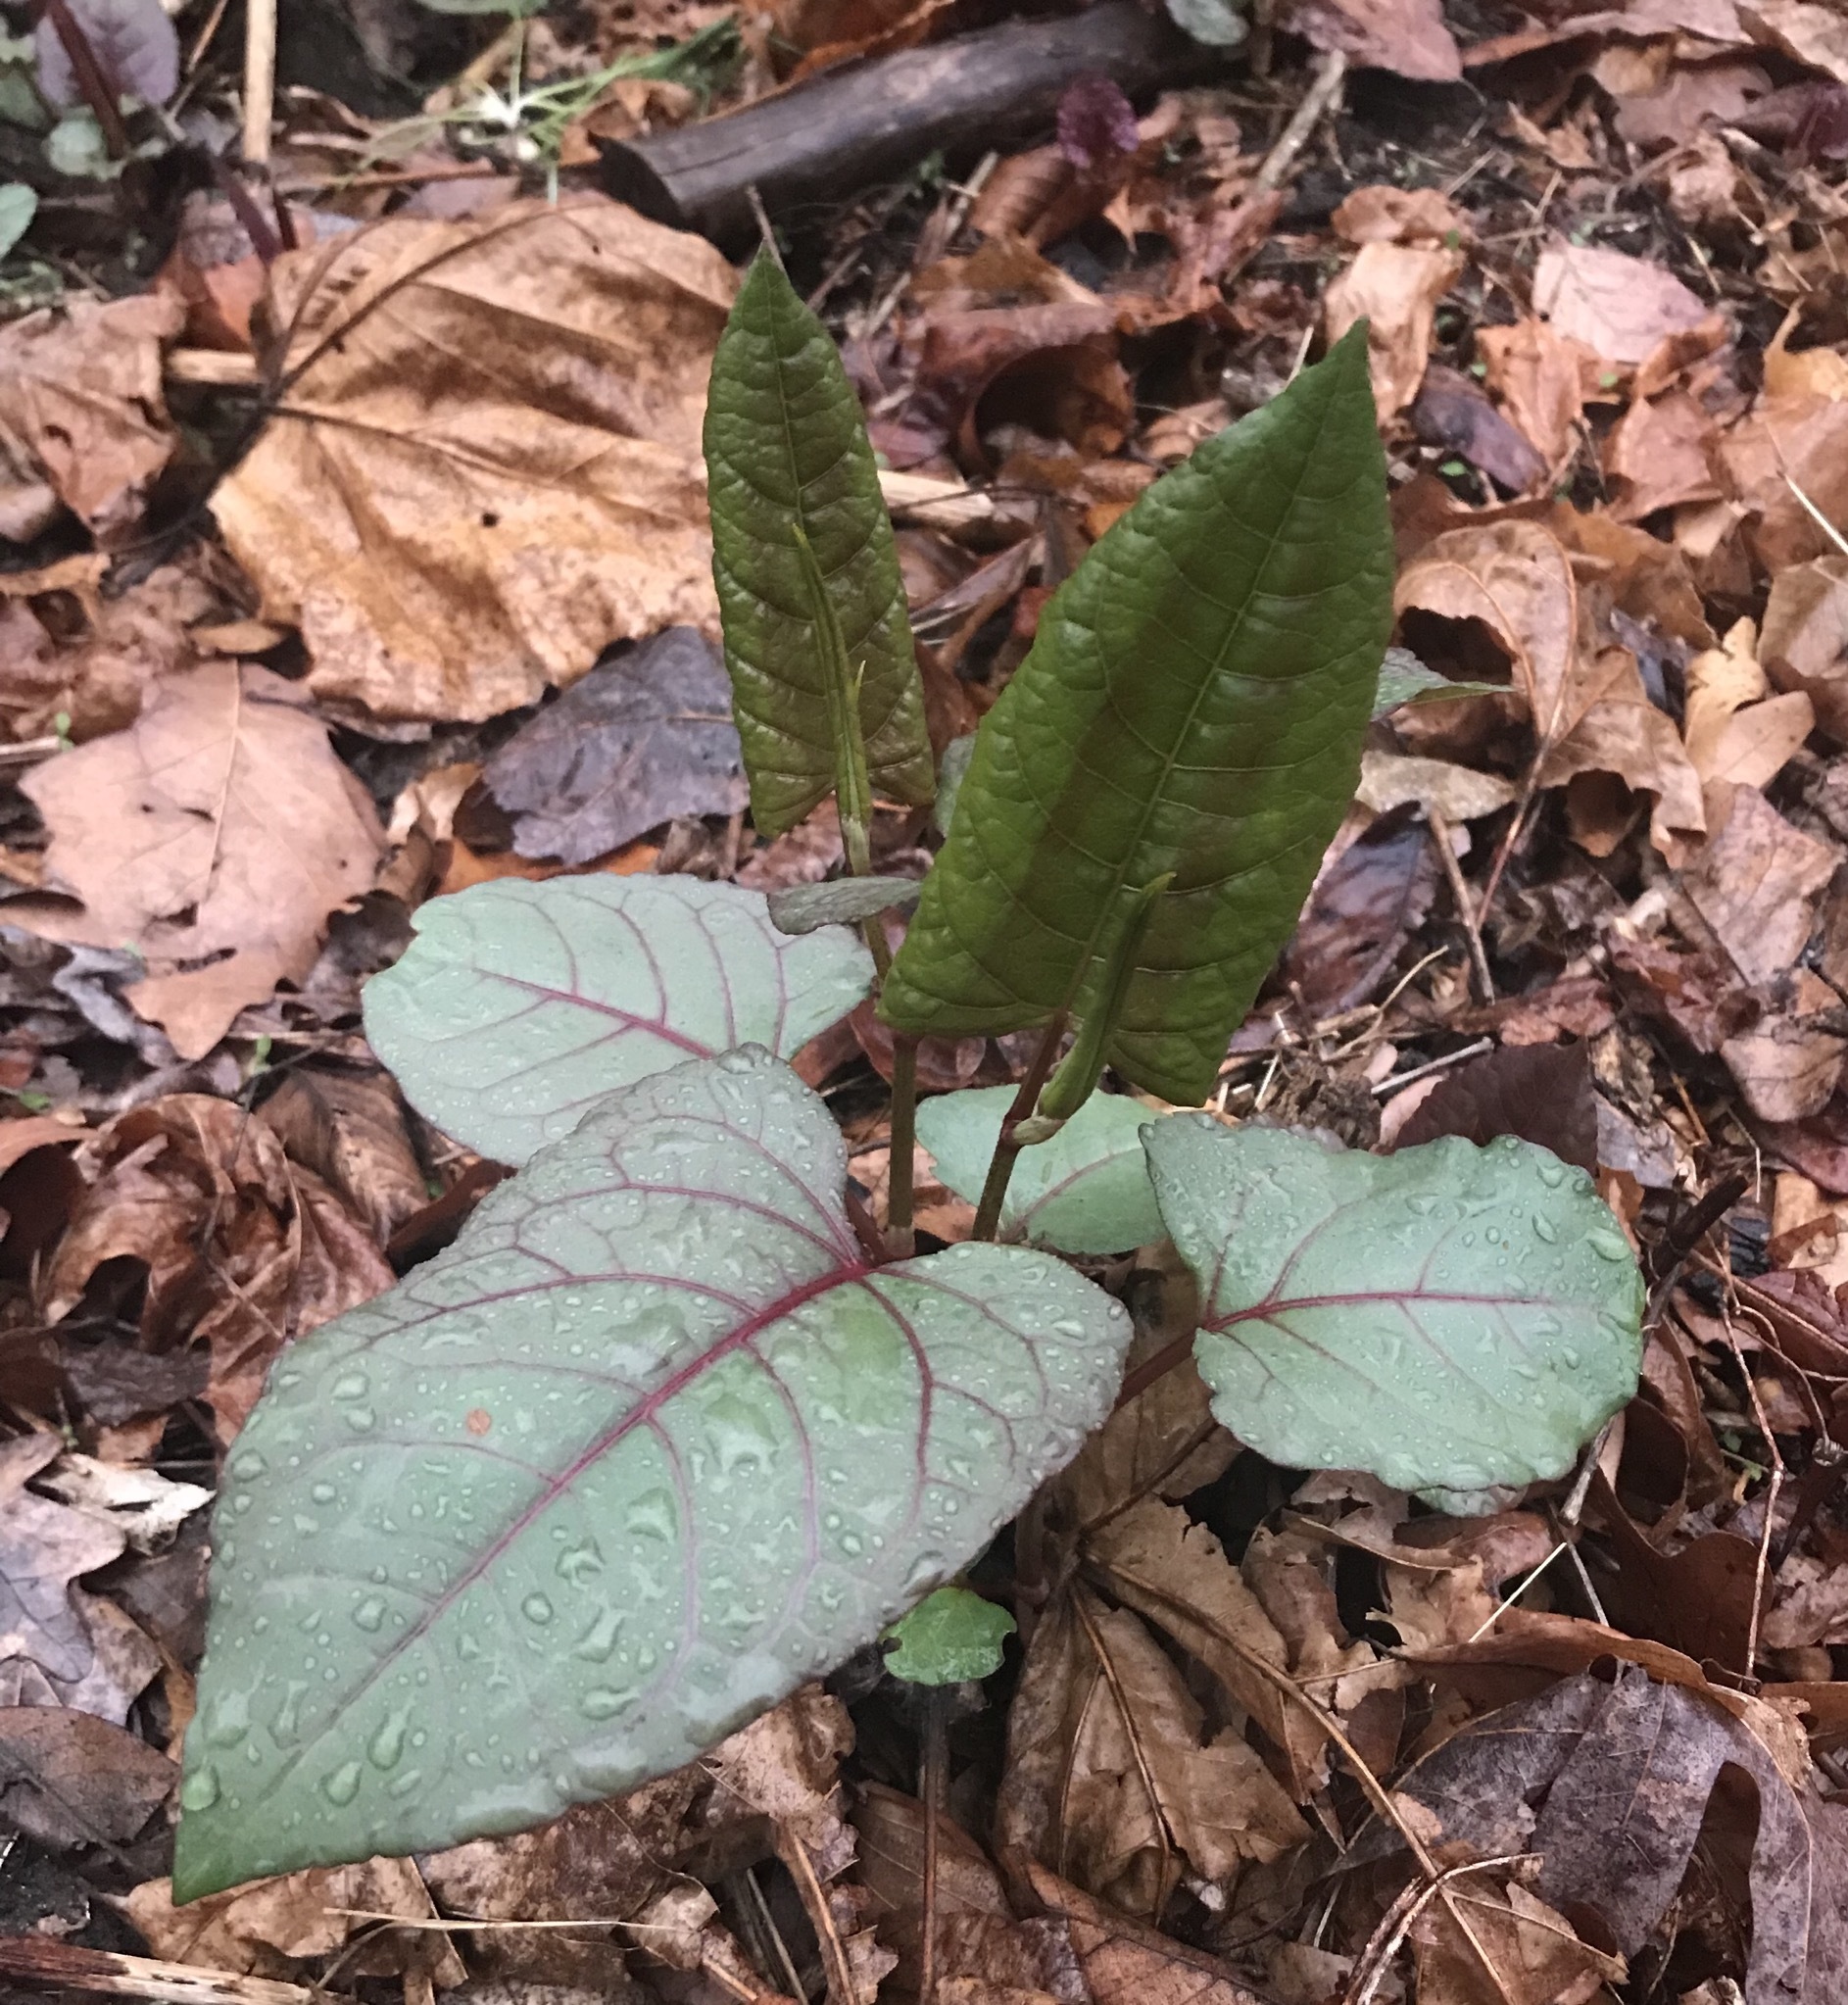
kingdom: Plantae
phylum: Tracheophyta
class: Magnoliopsida
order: Caryophyllales
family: Polygonaceae
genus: Rumex
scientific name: Rumex obtusifolius
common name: Bitter dock
